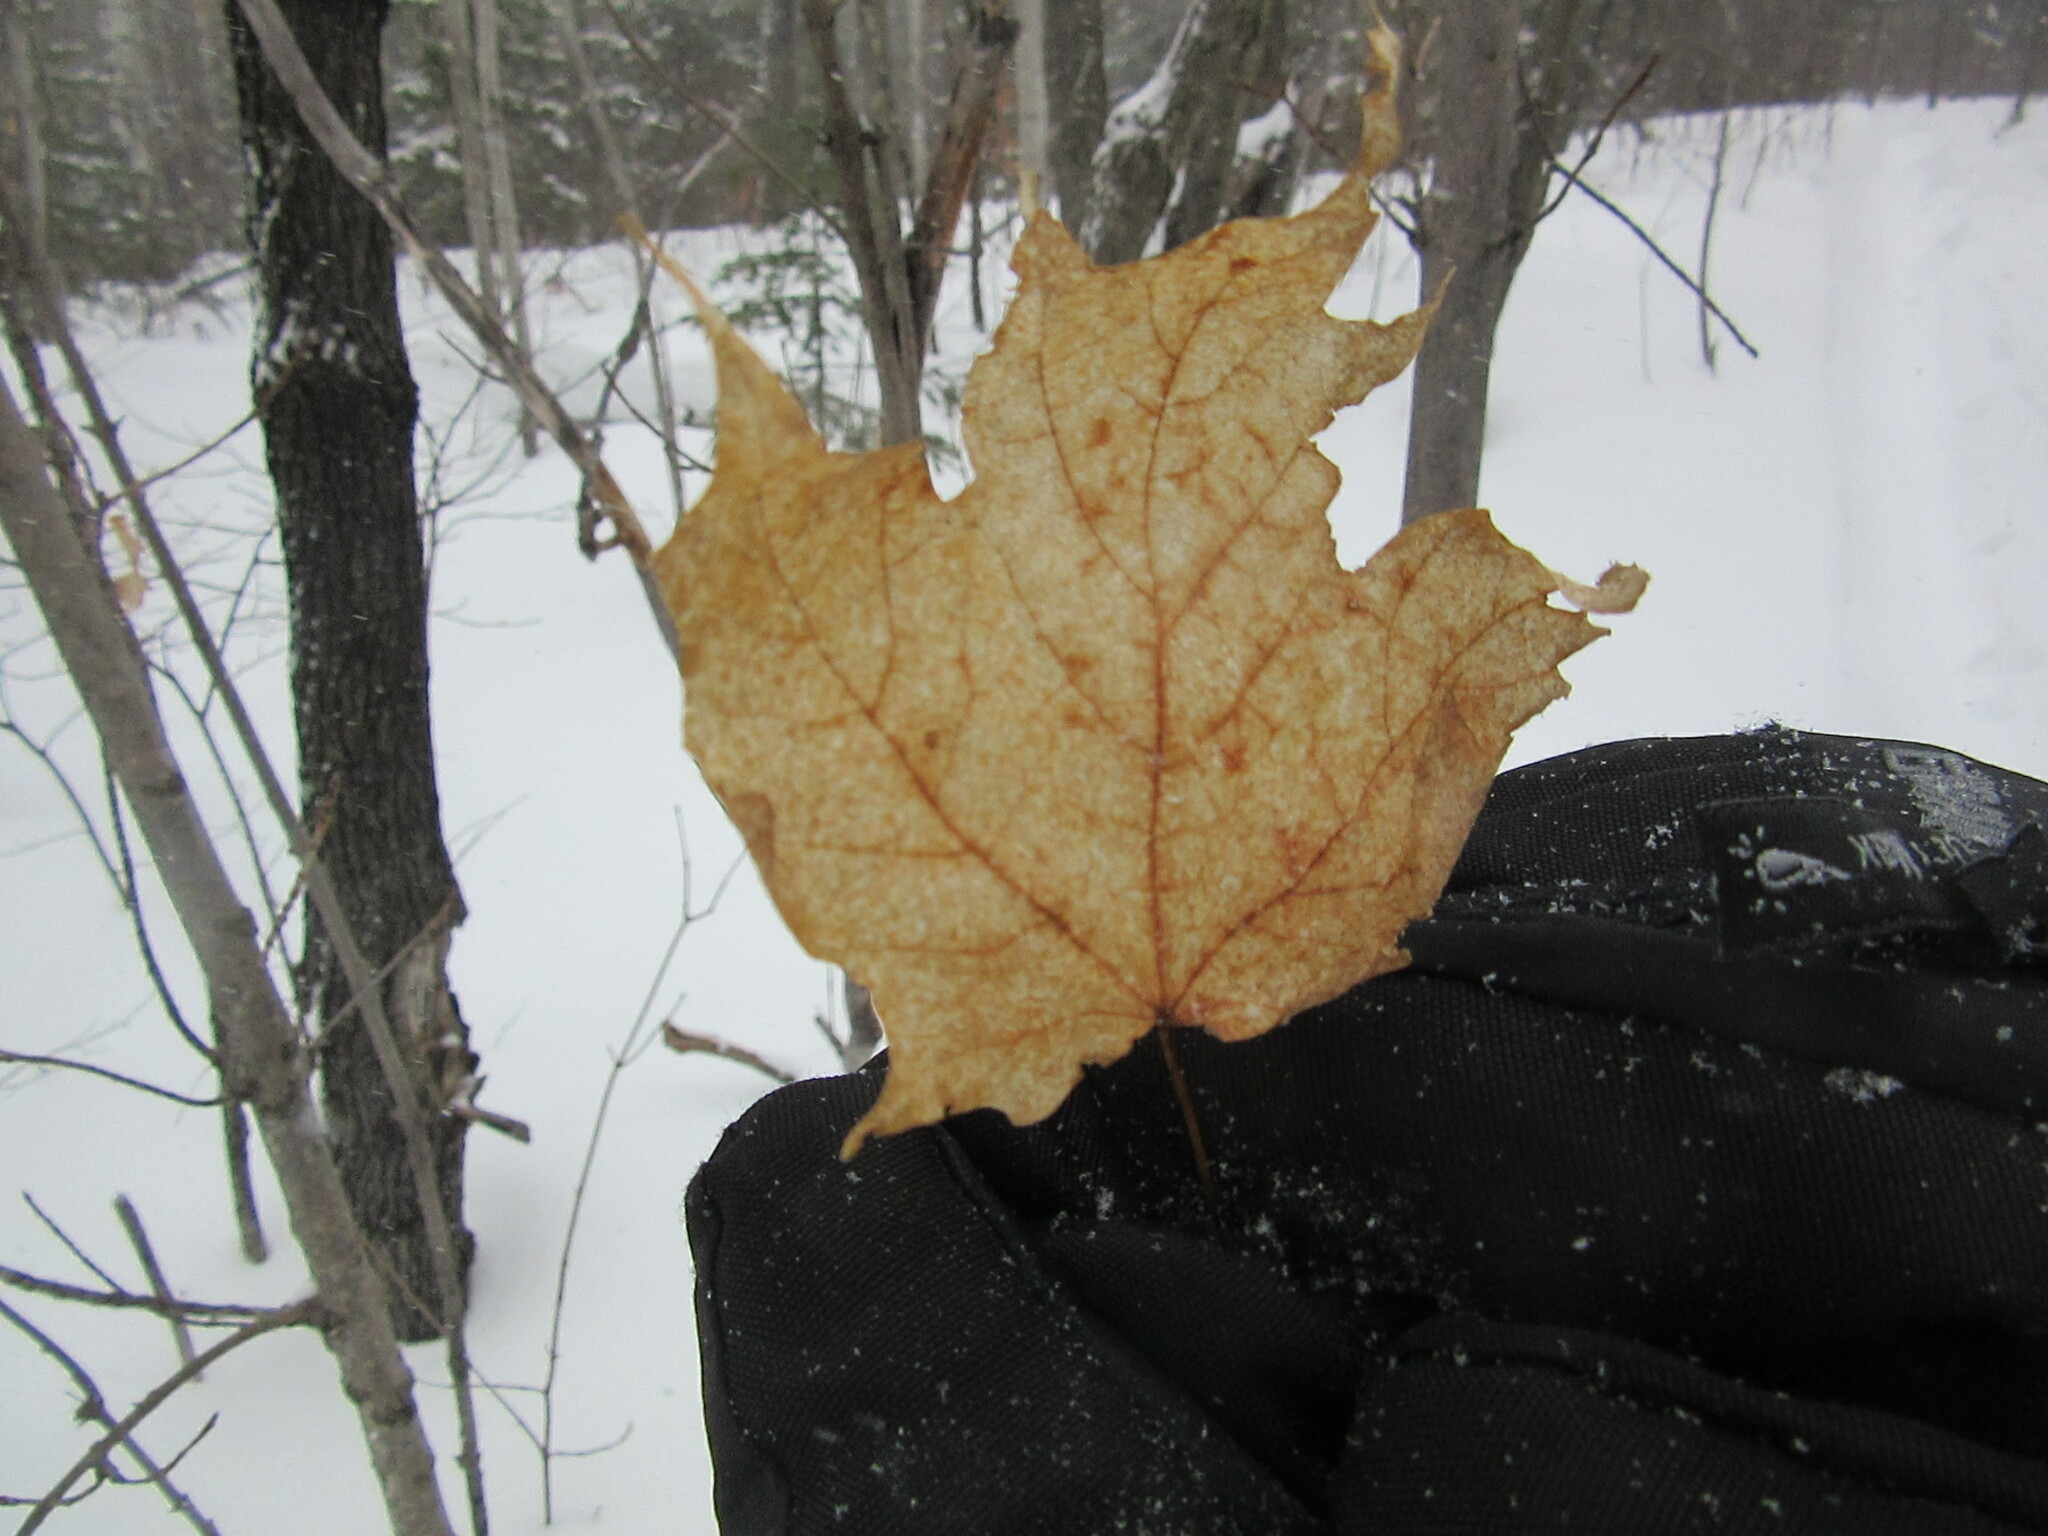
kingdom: Plantae
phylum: Tracheophyta
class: Magnoliopsida
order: Sapindales
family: Sapindaceae
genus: Acer
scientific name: Acer saccharum
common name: Sugar maple
